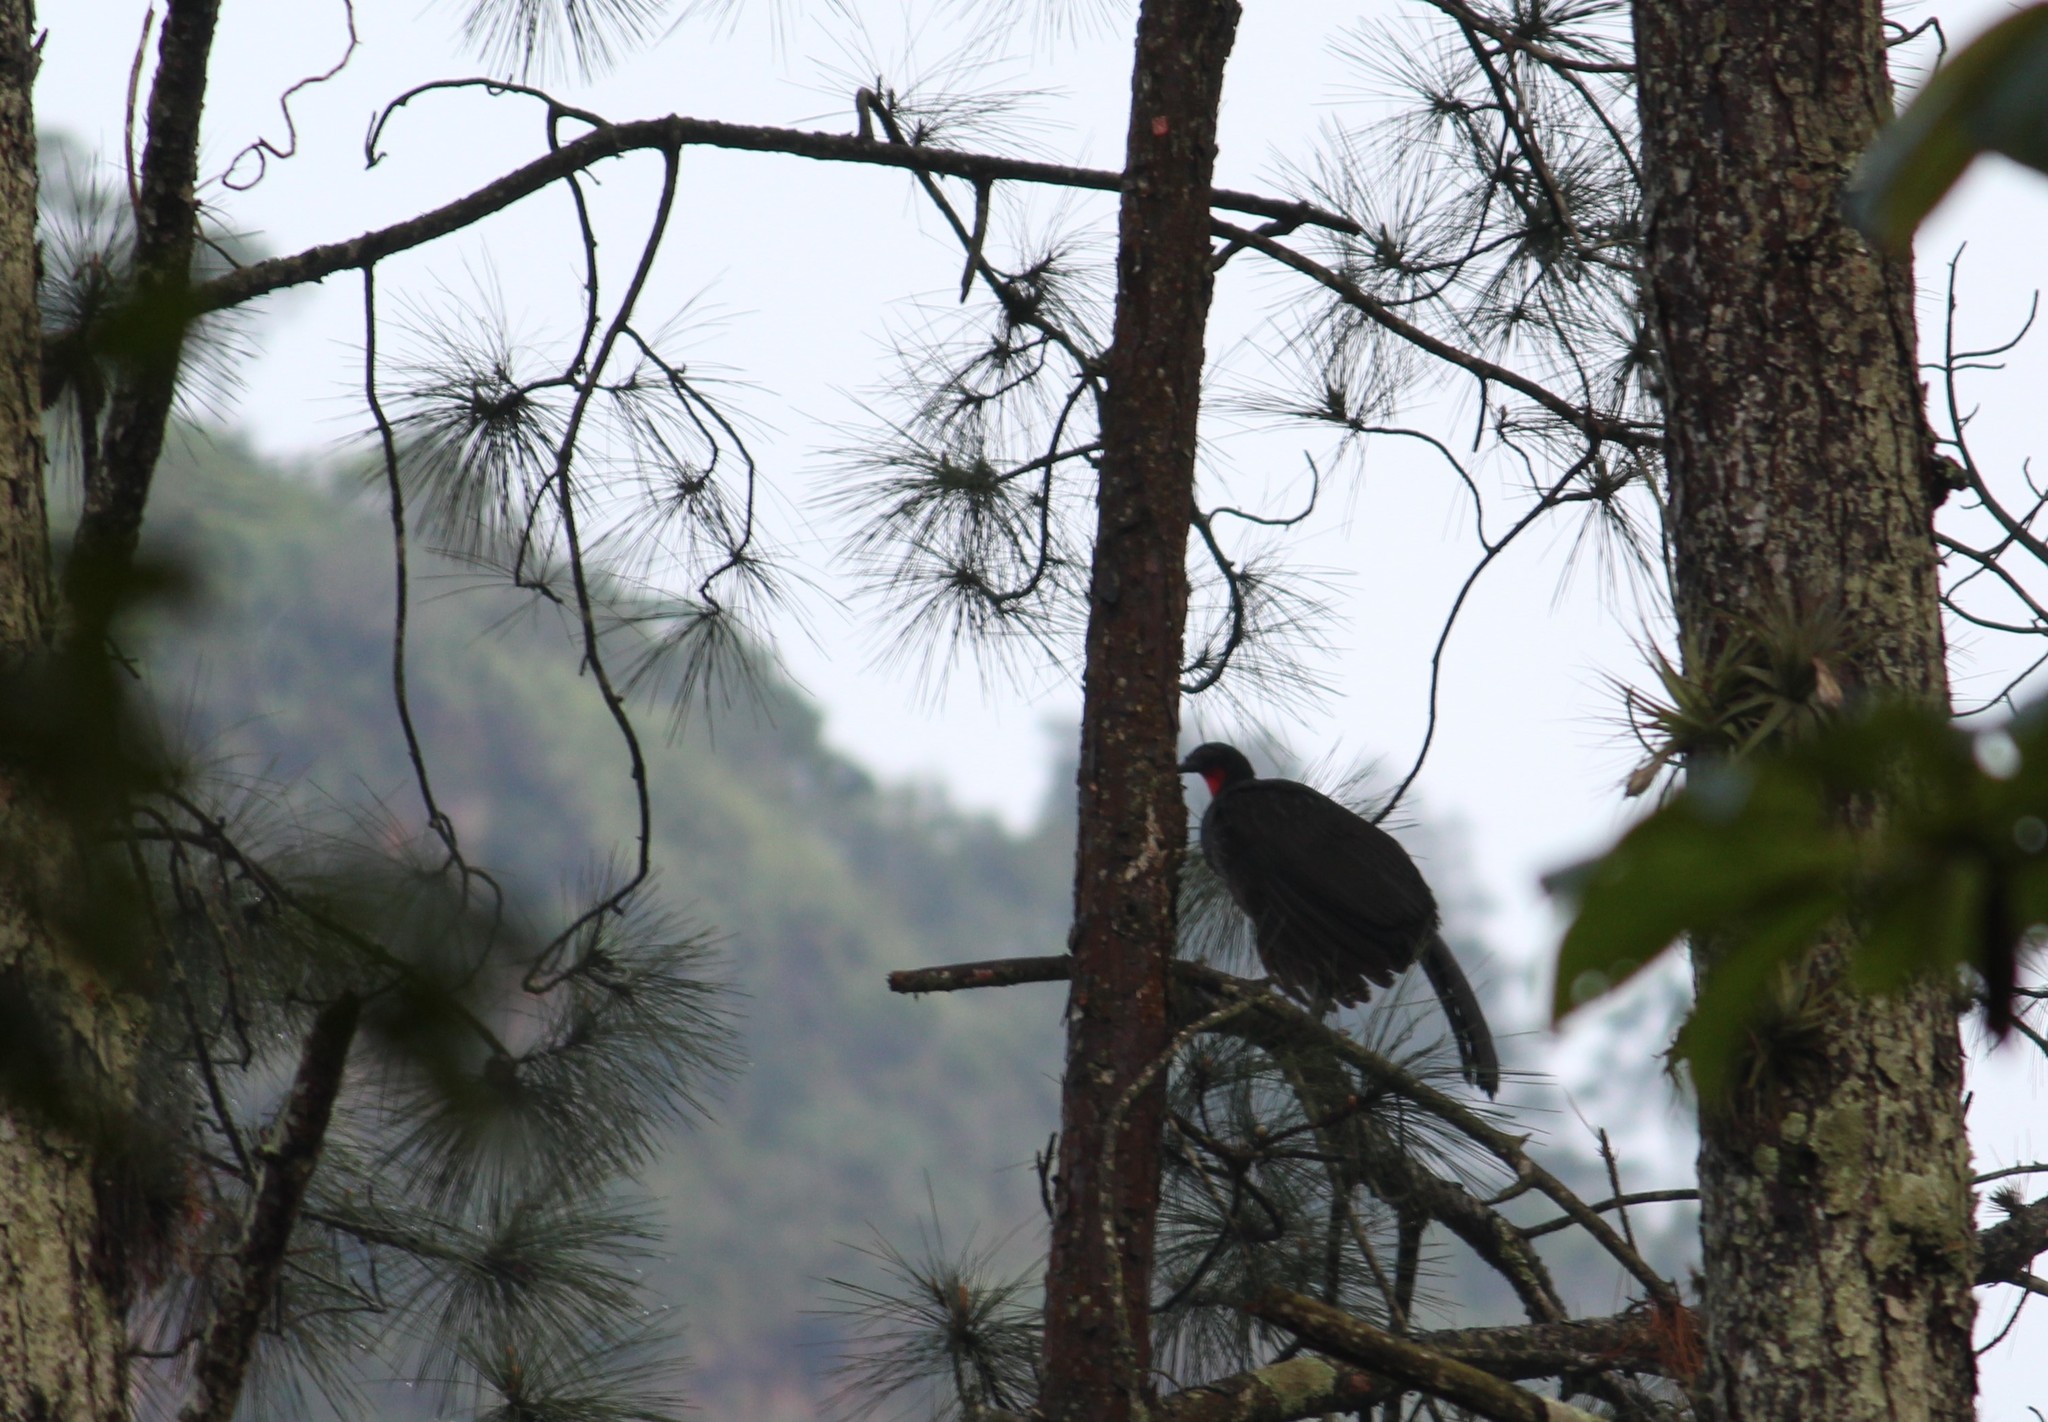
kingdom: Animalia
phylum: Chordata
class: Aves
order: Galliformes
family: Cracidae
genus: Penelope
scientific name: Penelope obscura
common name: Dusky-legged guan
